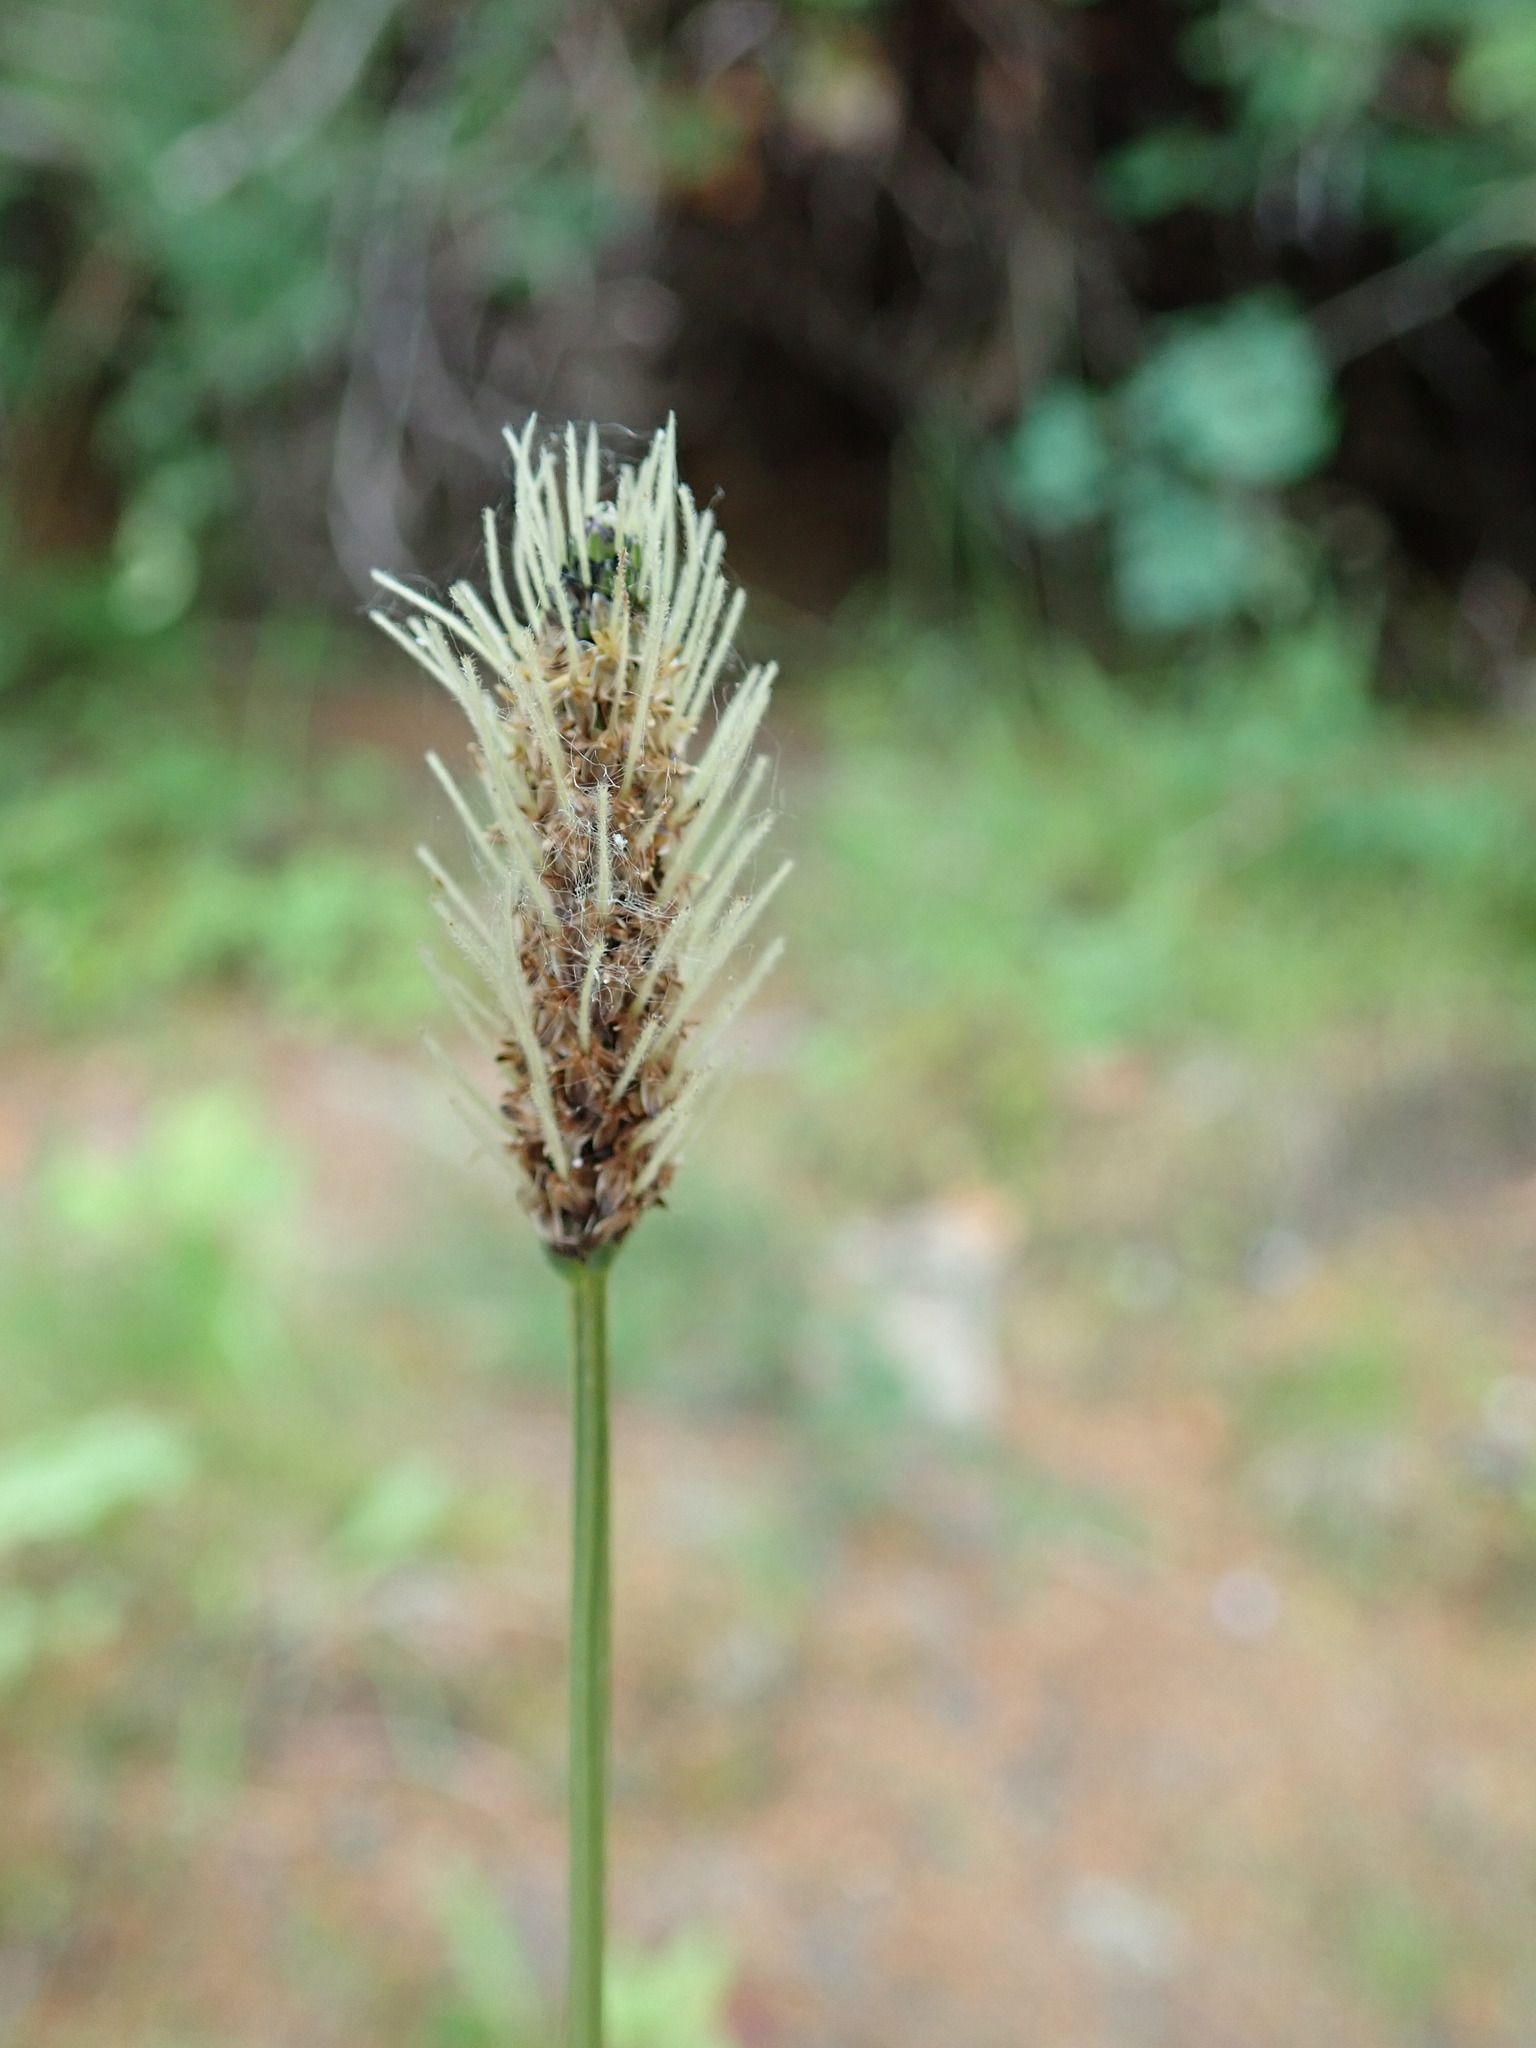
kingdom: Plantae
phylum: Tracheophyta
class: Magnoliopsida
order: Lamiales
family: Plantaginaceae
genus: Plantago
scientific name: Plantago lanceolata
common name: Ribwort plantain
